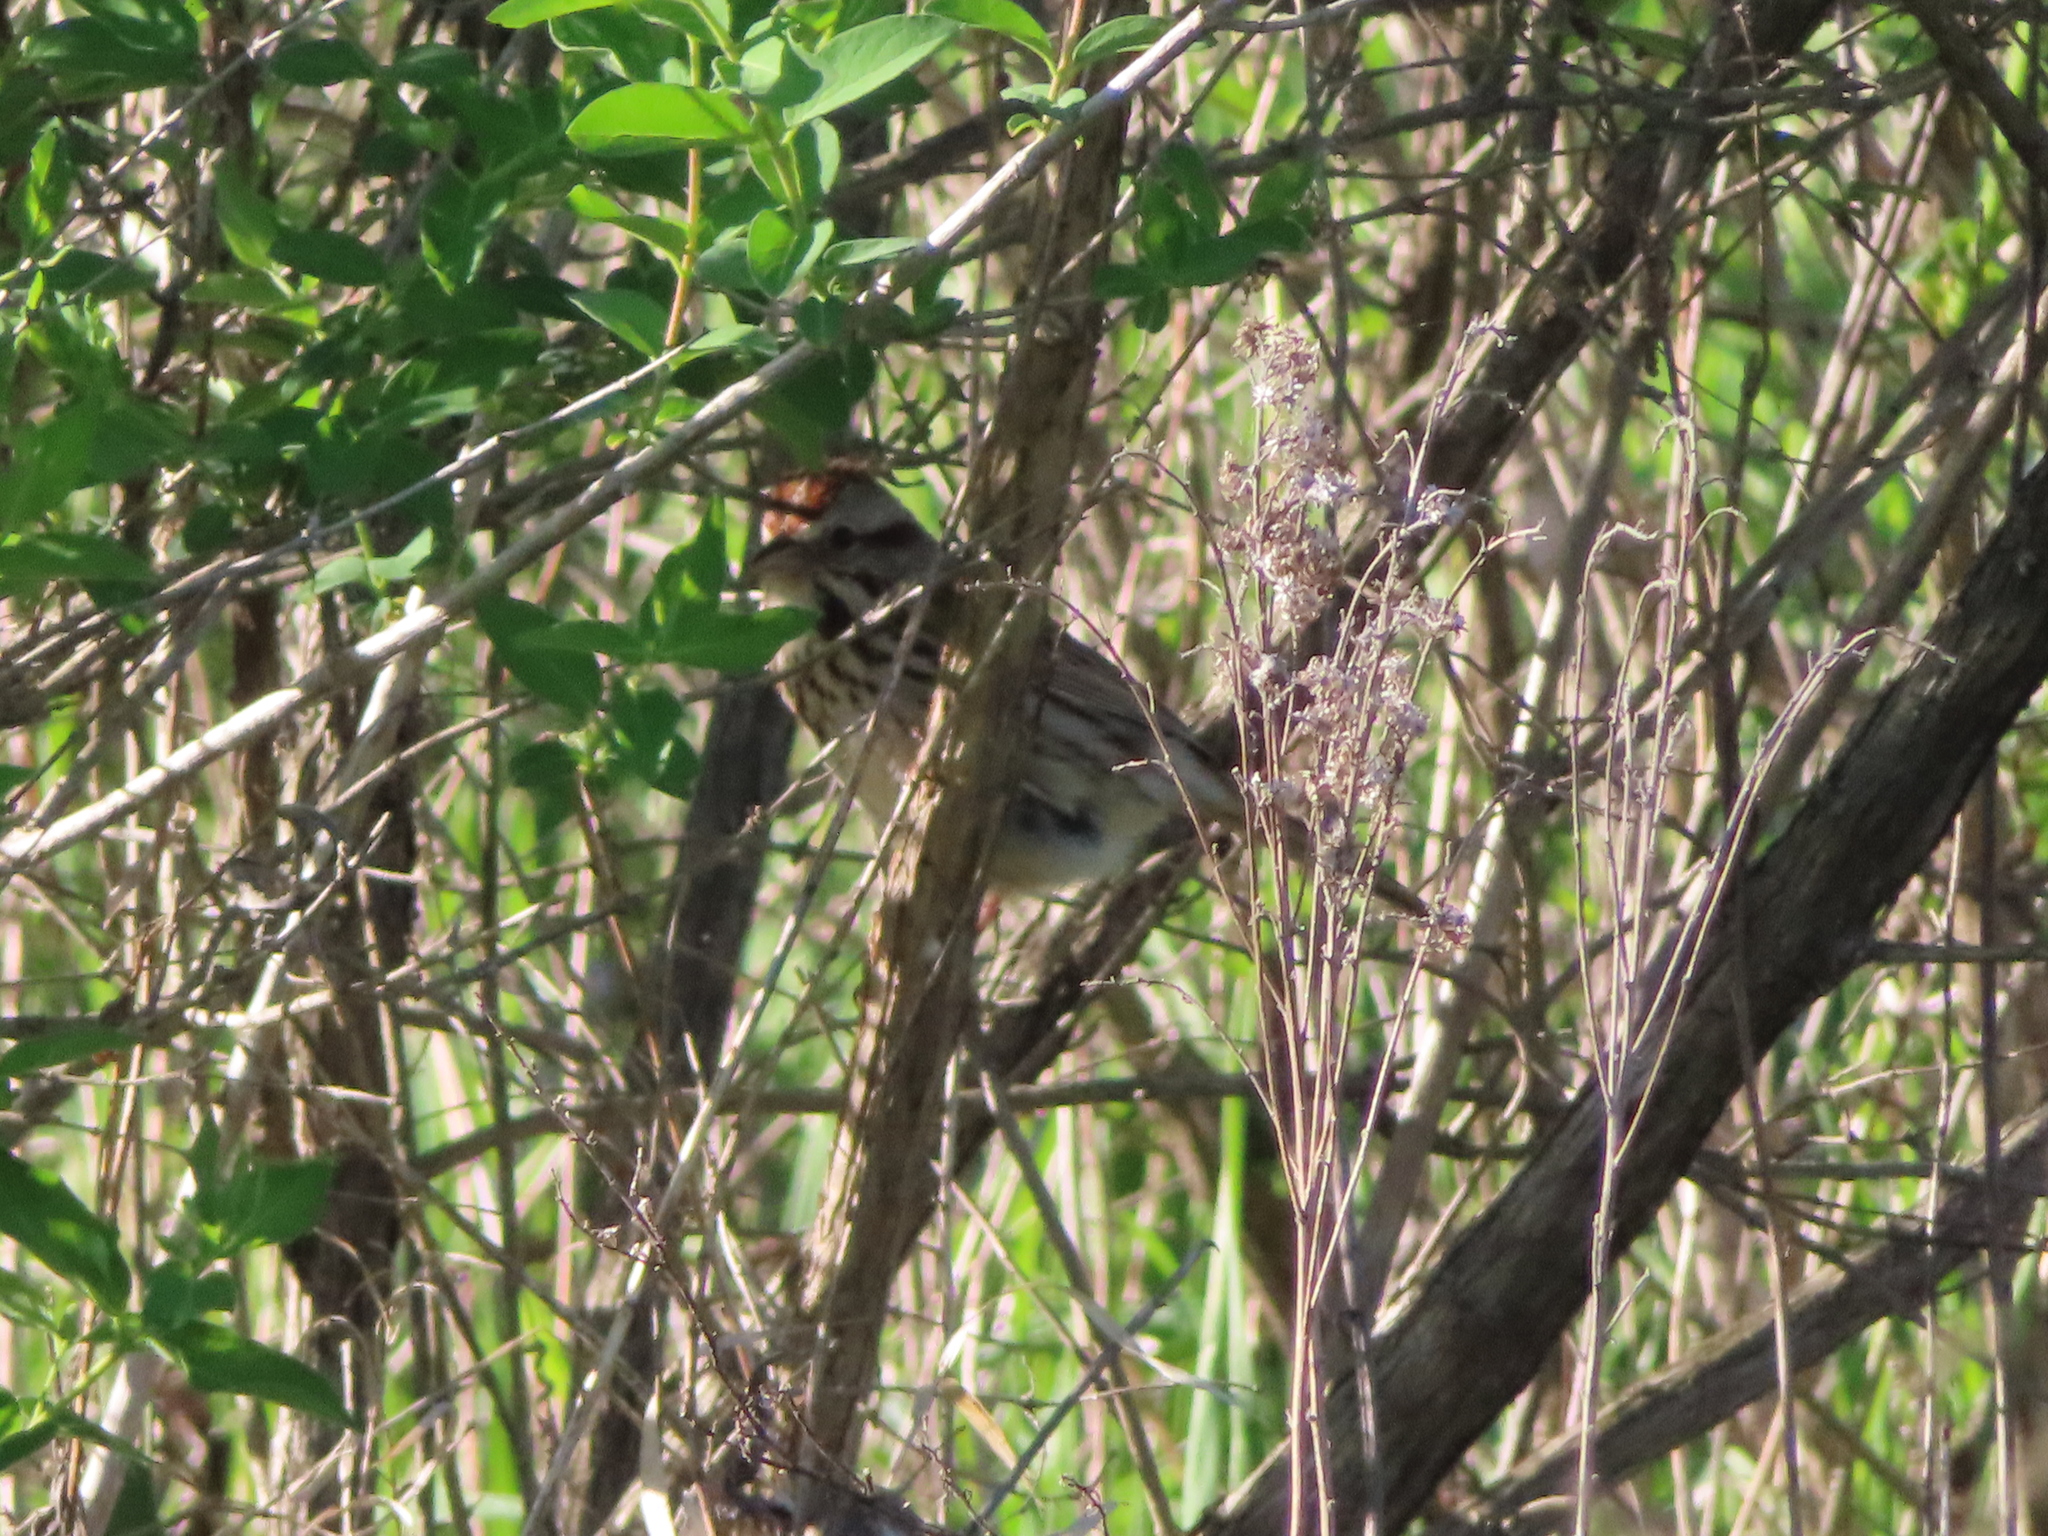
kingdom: Animalia
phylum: Chordata
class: Aves
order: Passeriformes
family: Passerellidae
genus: Melospiza
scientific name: Melospiza melodia
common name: Song sparrow
